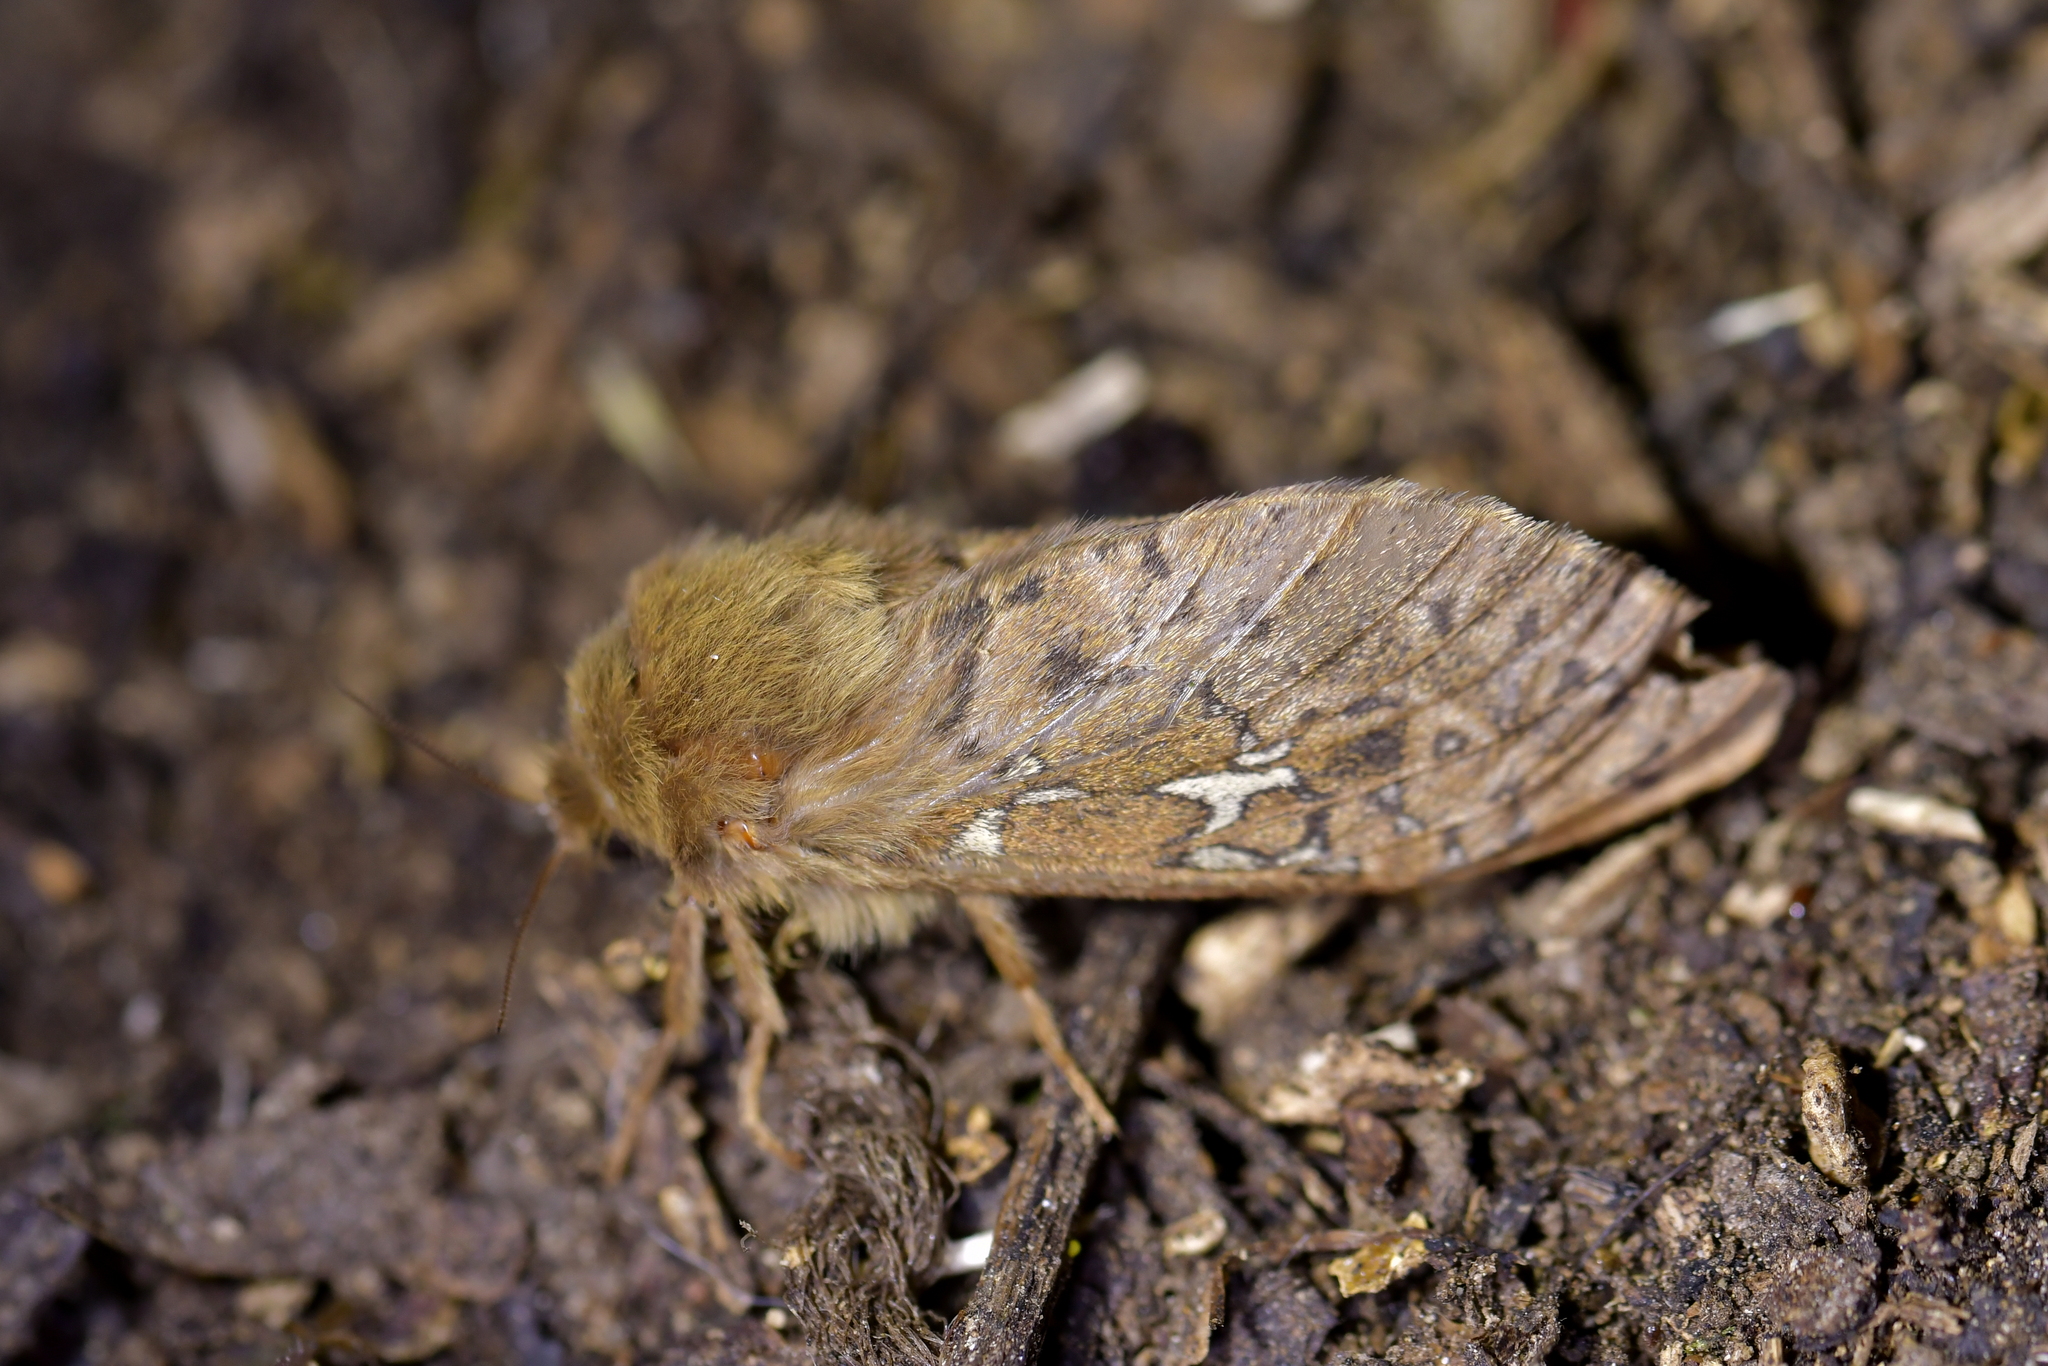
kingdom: Animalia
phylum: Arthropoda
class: Insecta
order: Lepidoptera
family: Hepialidae
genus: Wiseana
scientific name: Wiseana cervinata
